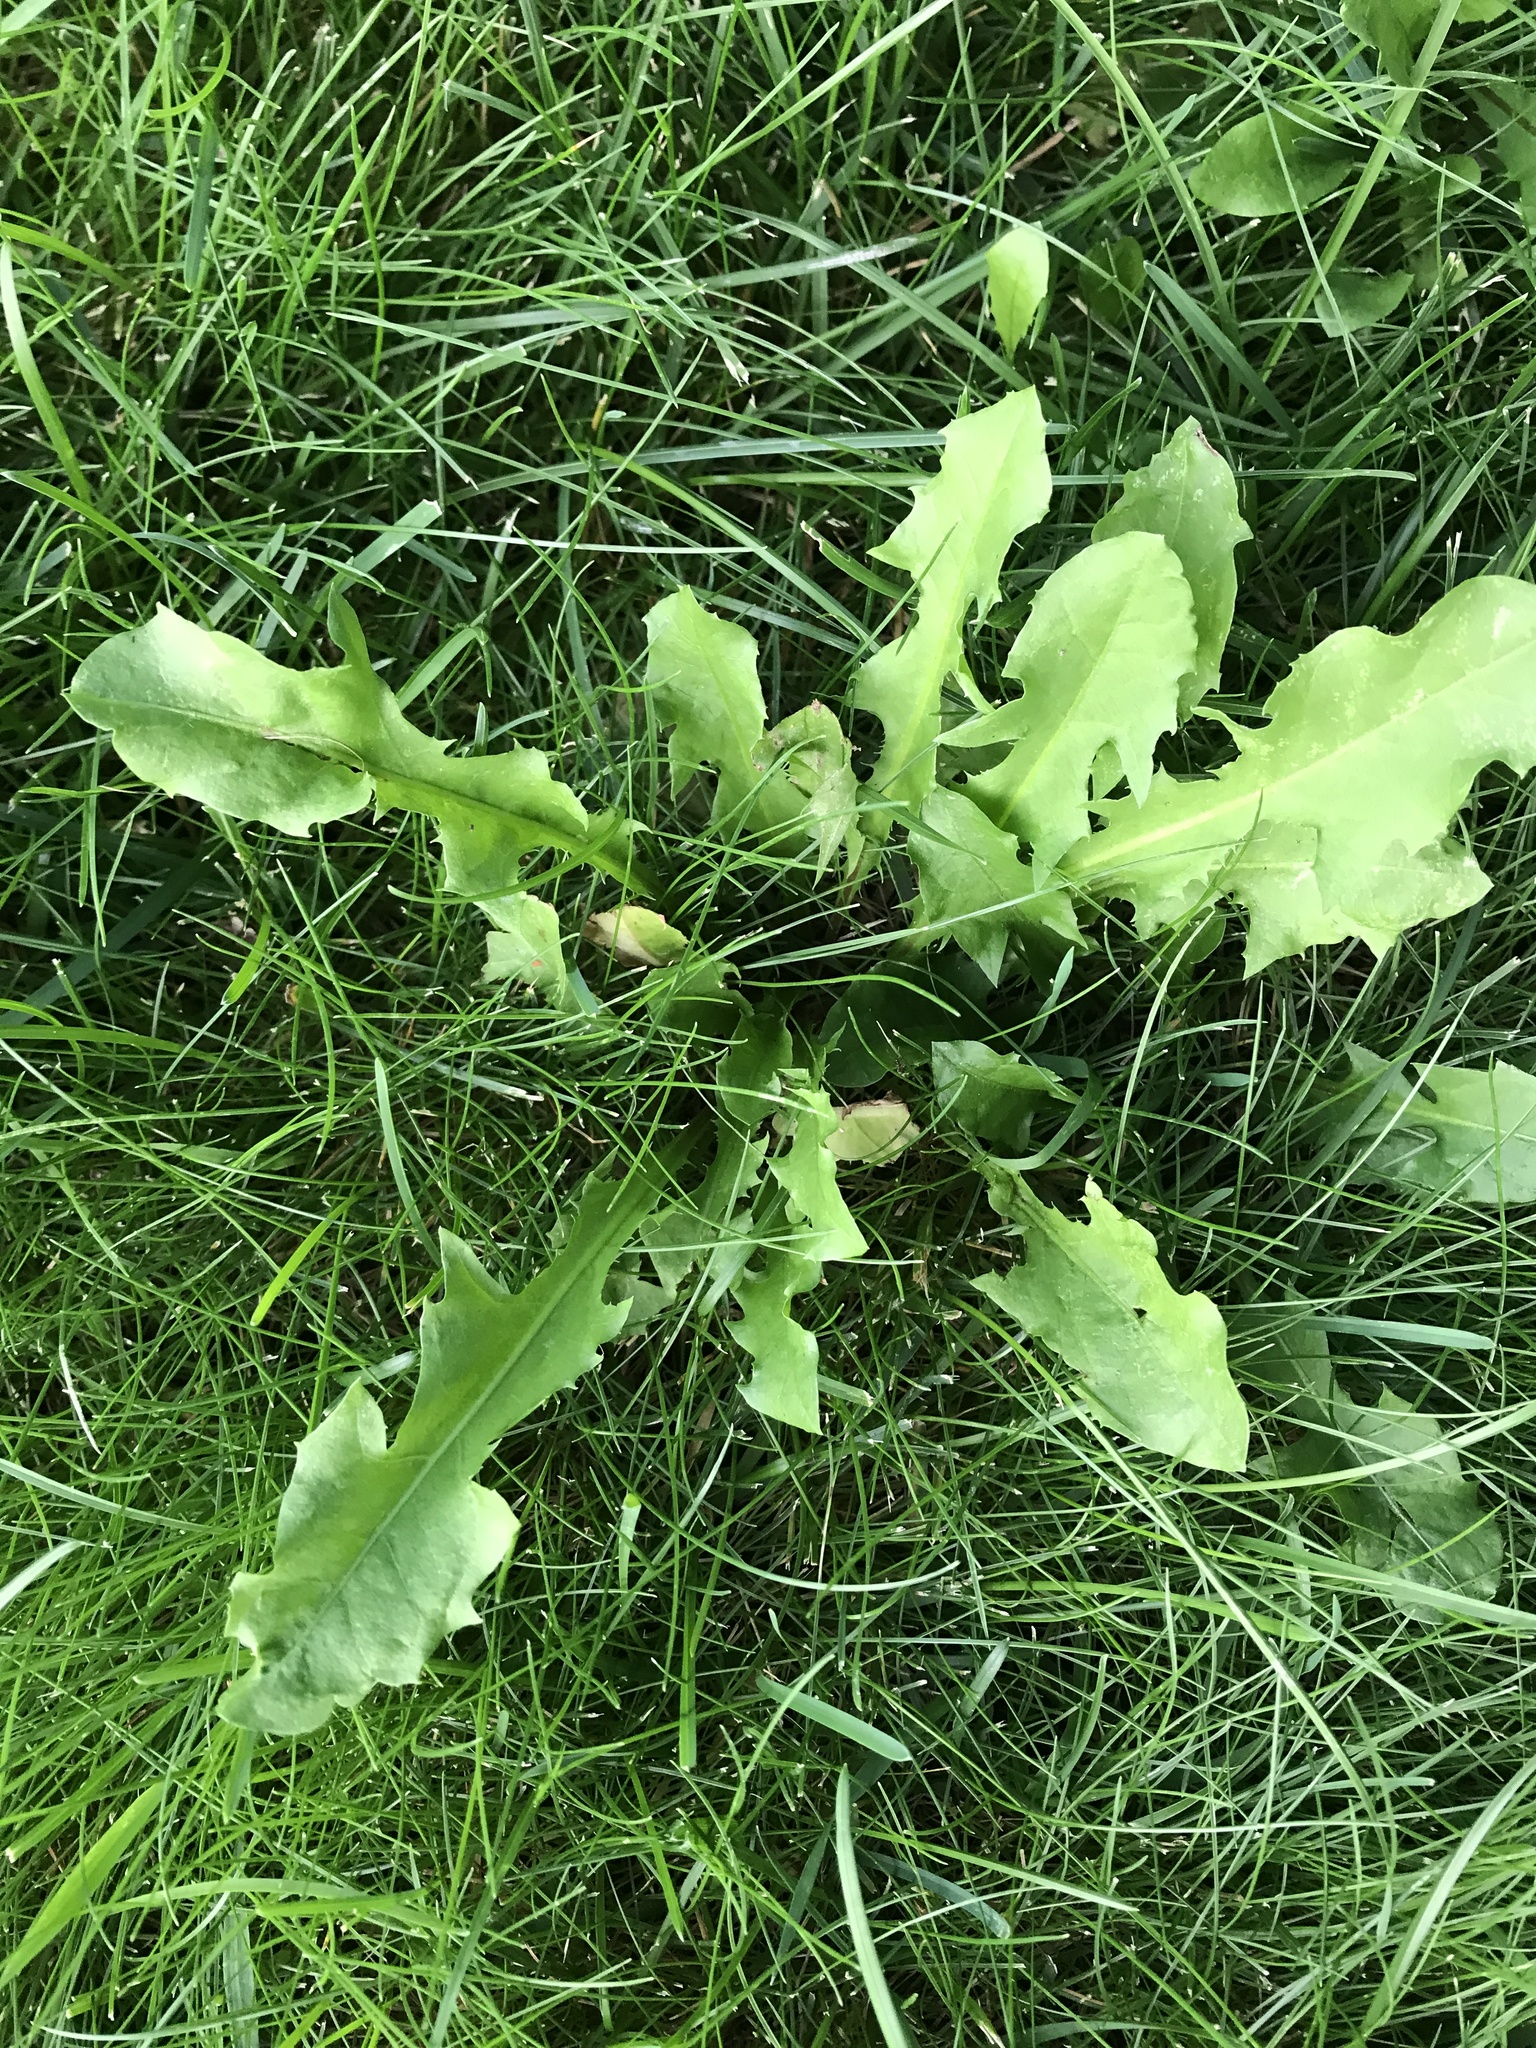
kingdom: Plantae
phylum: Tracheophyta
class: Magnoliopsida
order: Asterales
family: Asteraceae
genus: Taraxacum
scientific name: Taraxacum officinale
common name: Common dandelion
